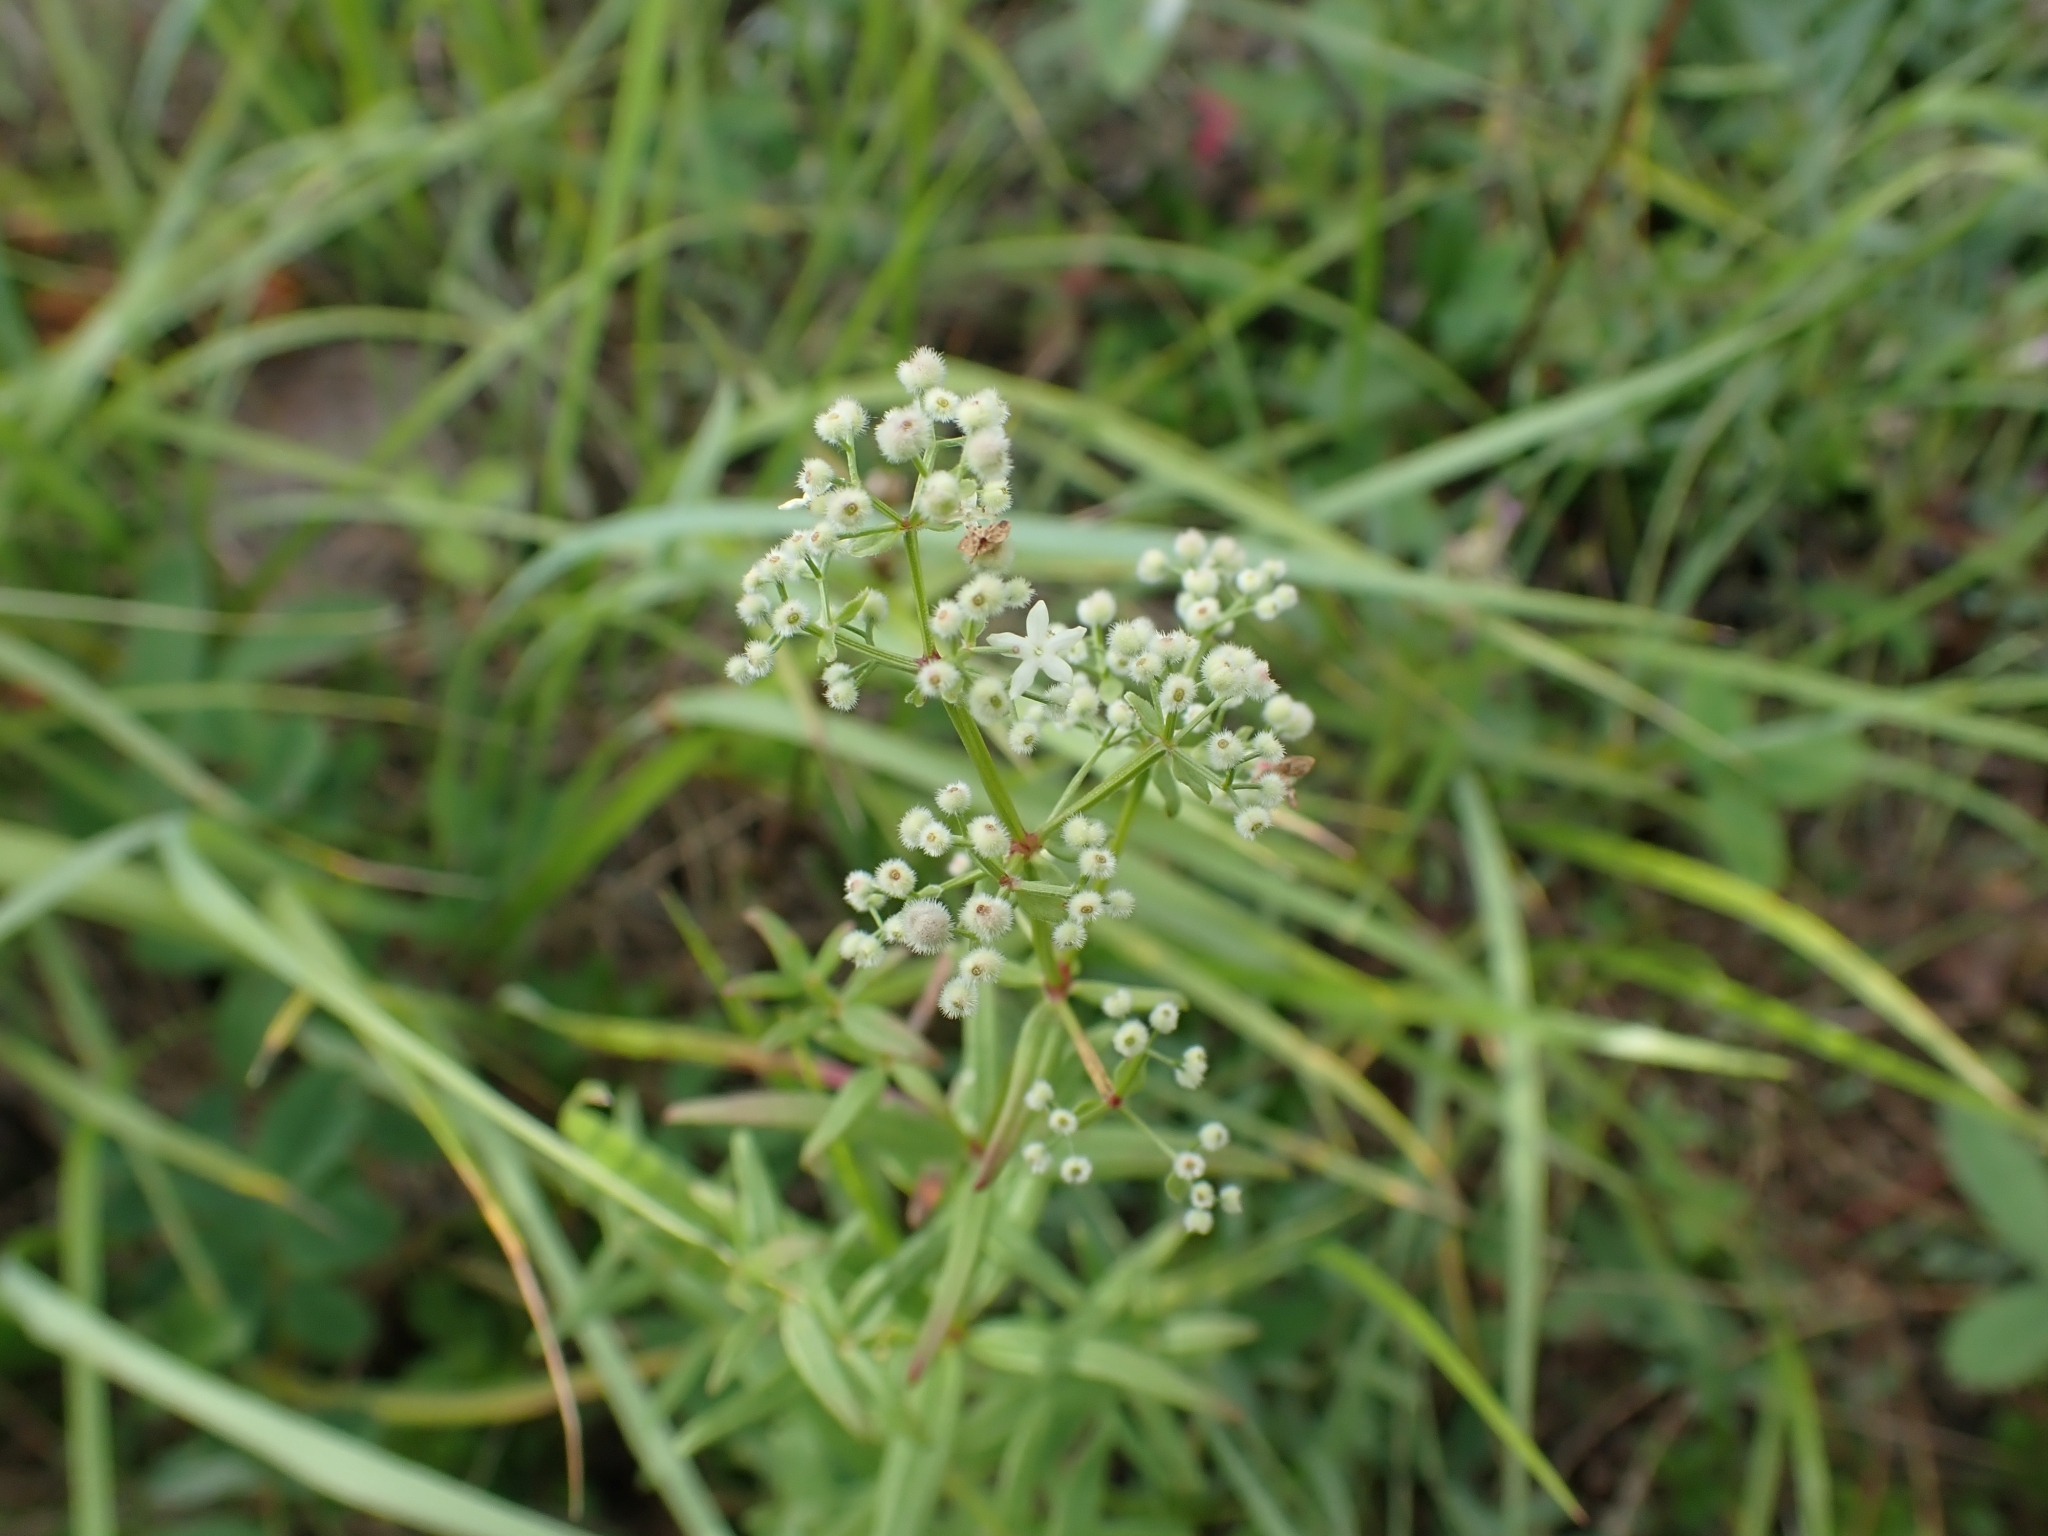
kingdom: Plantae
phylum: Tracheophyta
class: Magnoliopsida
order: Gentianales
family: Rubiaceae
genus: Galium
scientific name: Galium boreale
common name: Northern bedstraw
